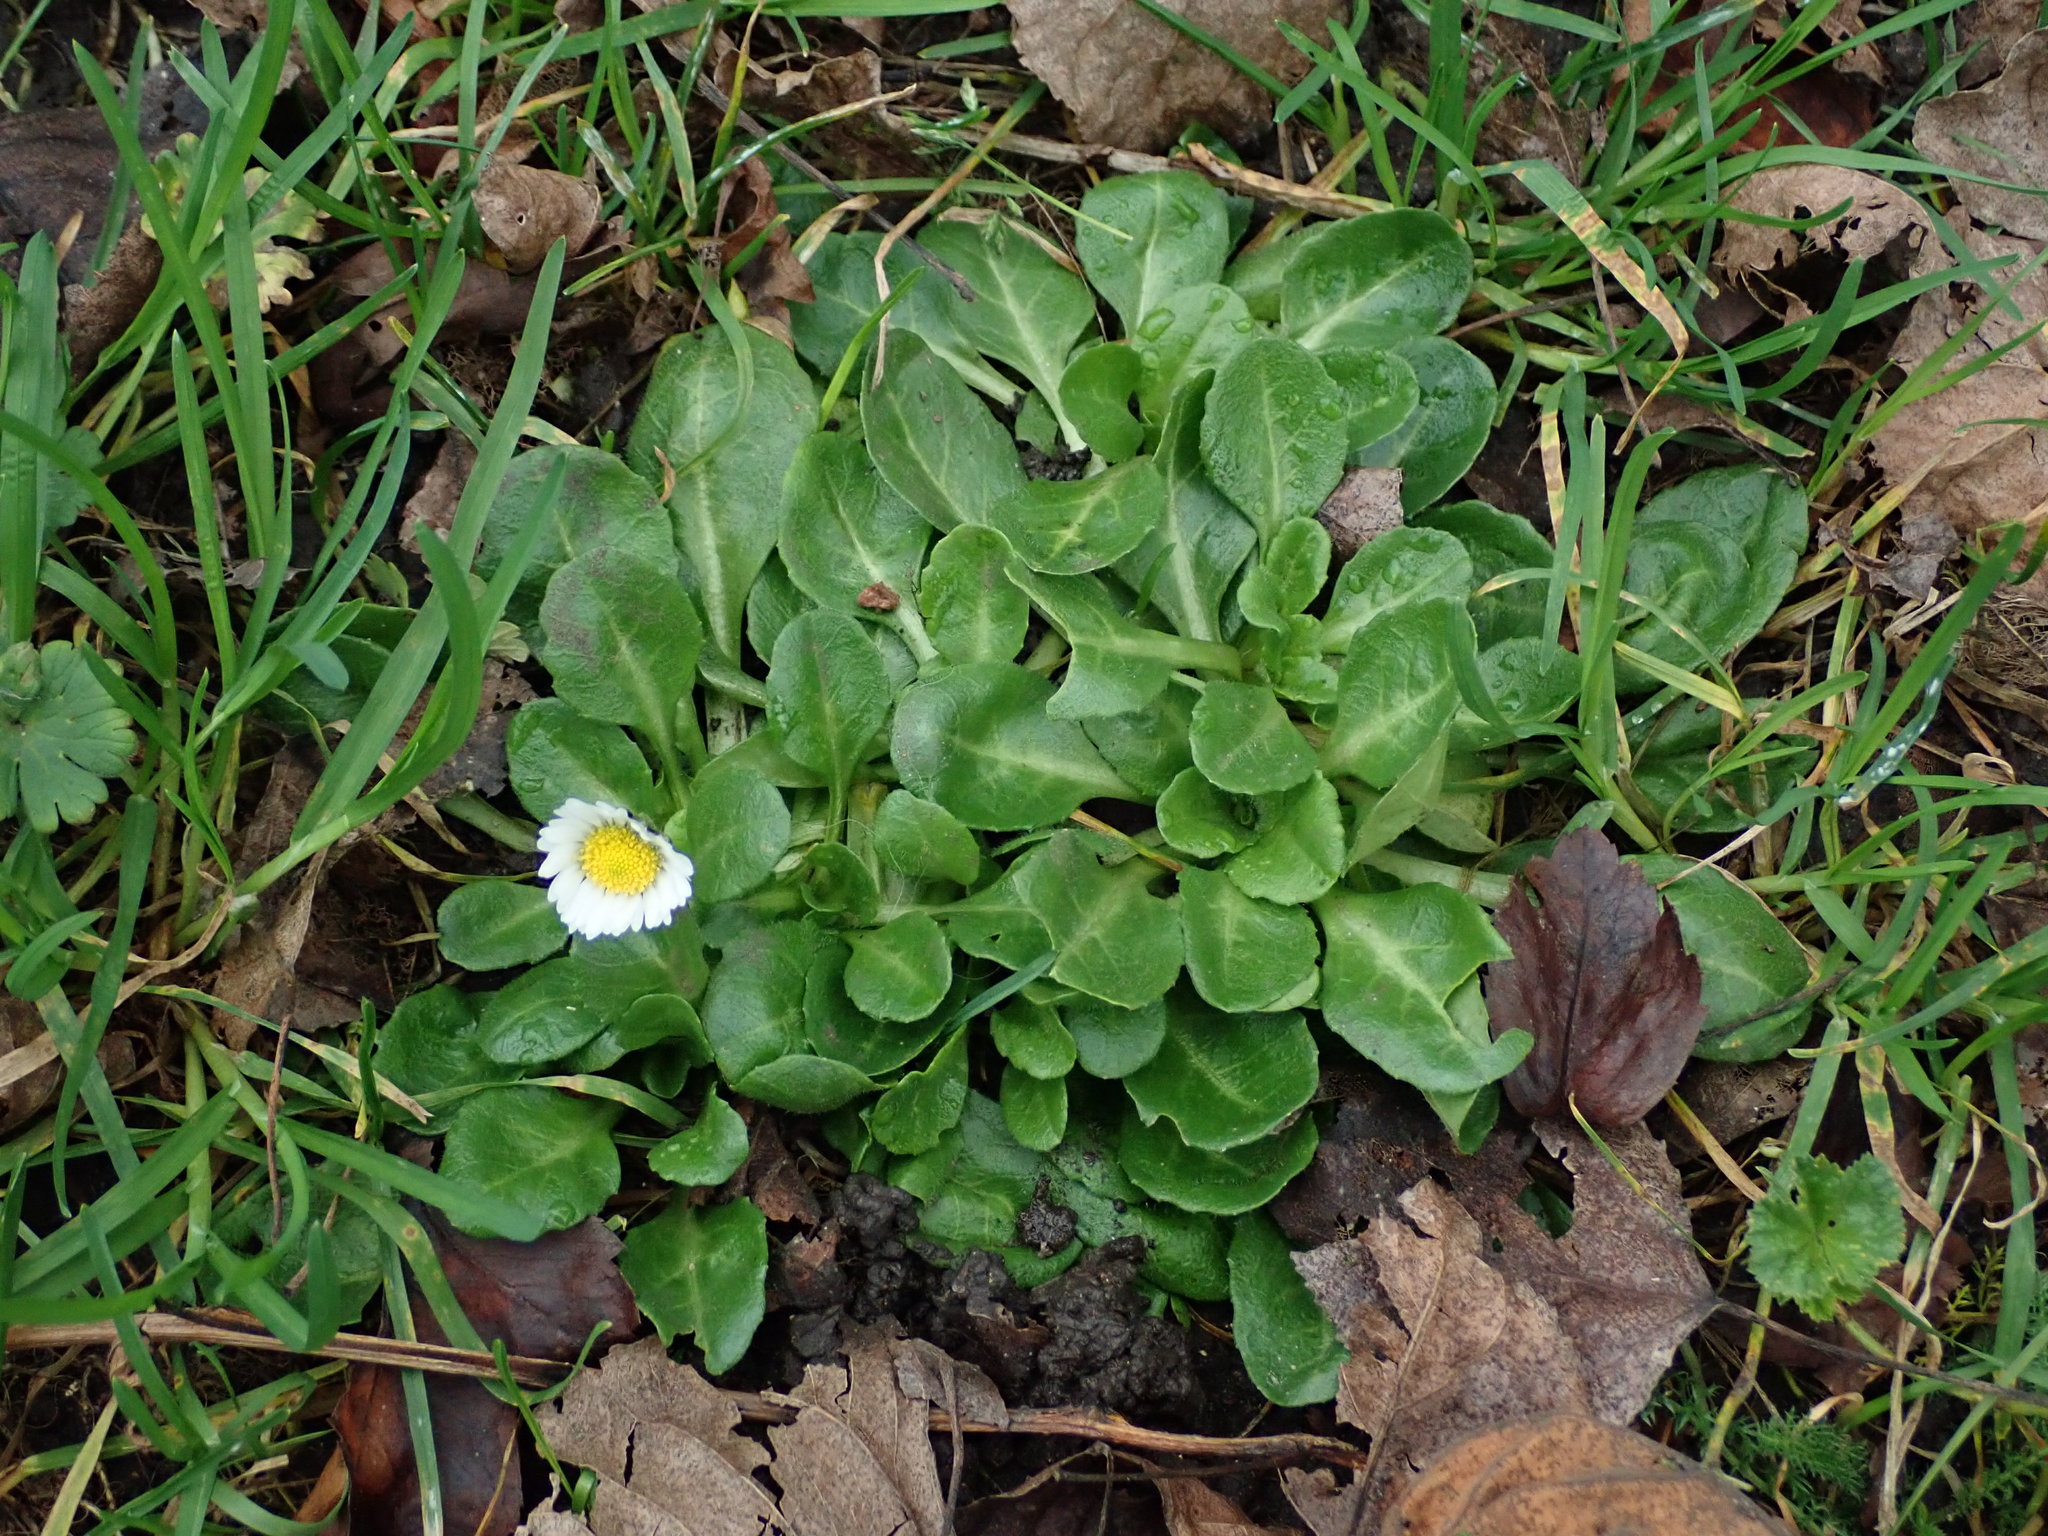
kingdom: Plantae
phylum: Tracheophyta
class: Magnoliopsida
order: Asterales
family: Asteraceae
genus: Bellis
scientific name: Bellis perennis
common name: Lawndaisy
